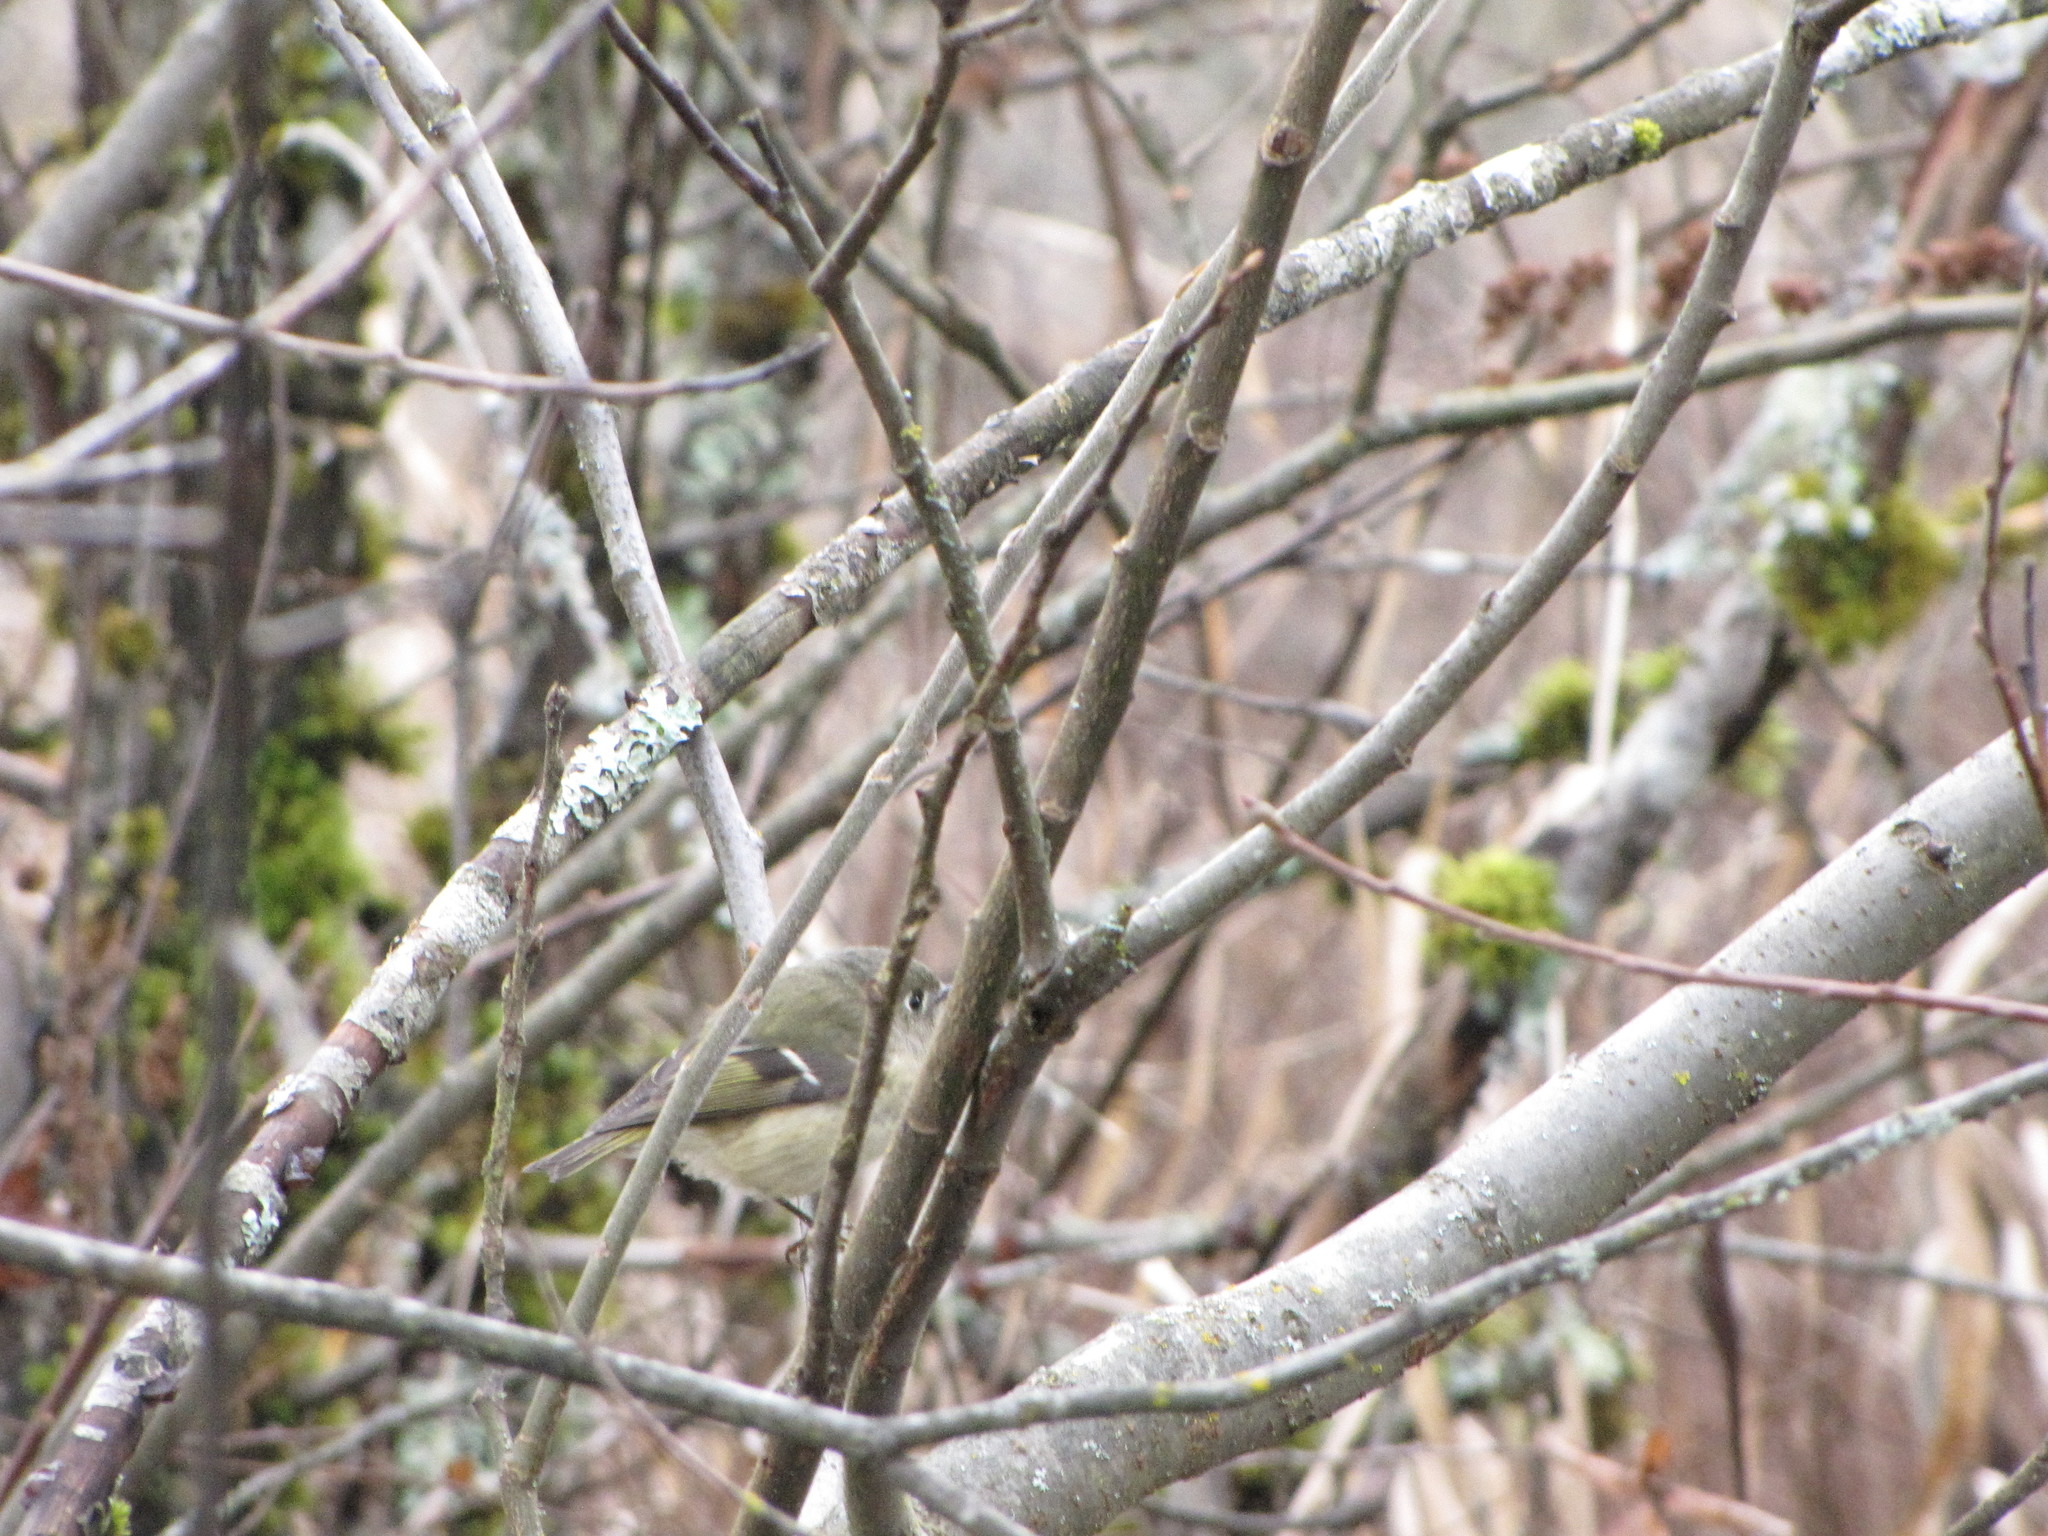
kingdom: Animalia
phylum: Chordata
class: Aves
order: Passeriformes
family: Regulidae
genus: Regulus
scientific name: Regulus calendula
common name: Ruby-crowned kinglet
